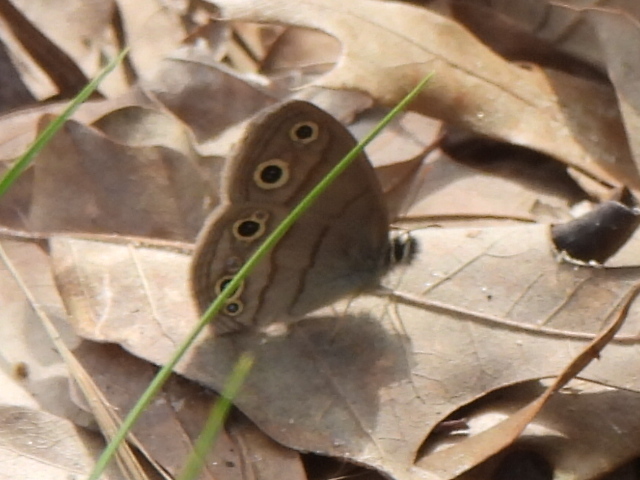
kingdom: Animalia
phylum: Arthropoda
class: Insecta
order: Lepidoptera
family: Nymphalidae
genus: Euptychia
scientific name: Euptychia cymela
